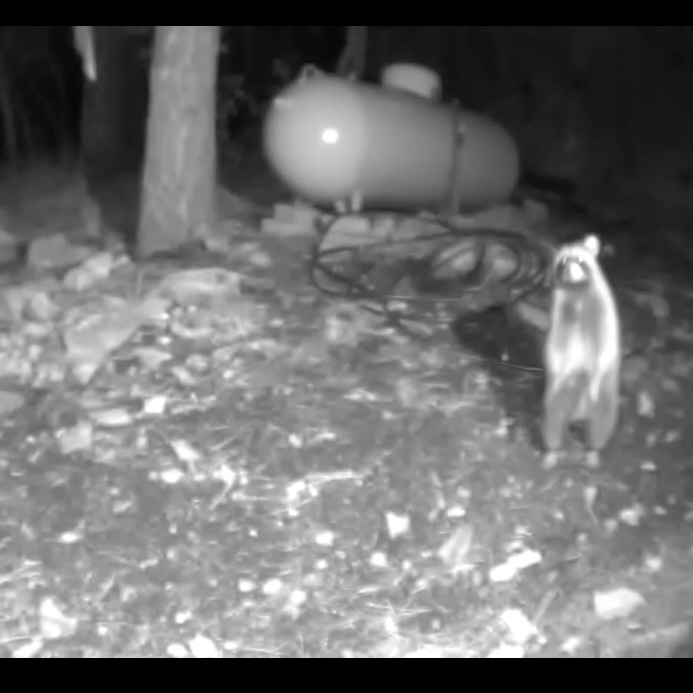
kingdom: Animalia
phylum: Chordata
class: Mammalia
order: Carnivora
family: Procyonidae
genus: Procyon
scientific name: Procyon lotor
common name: Raccoon
